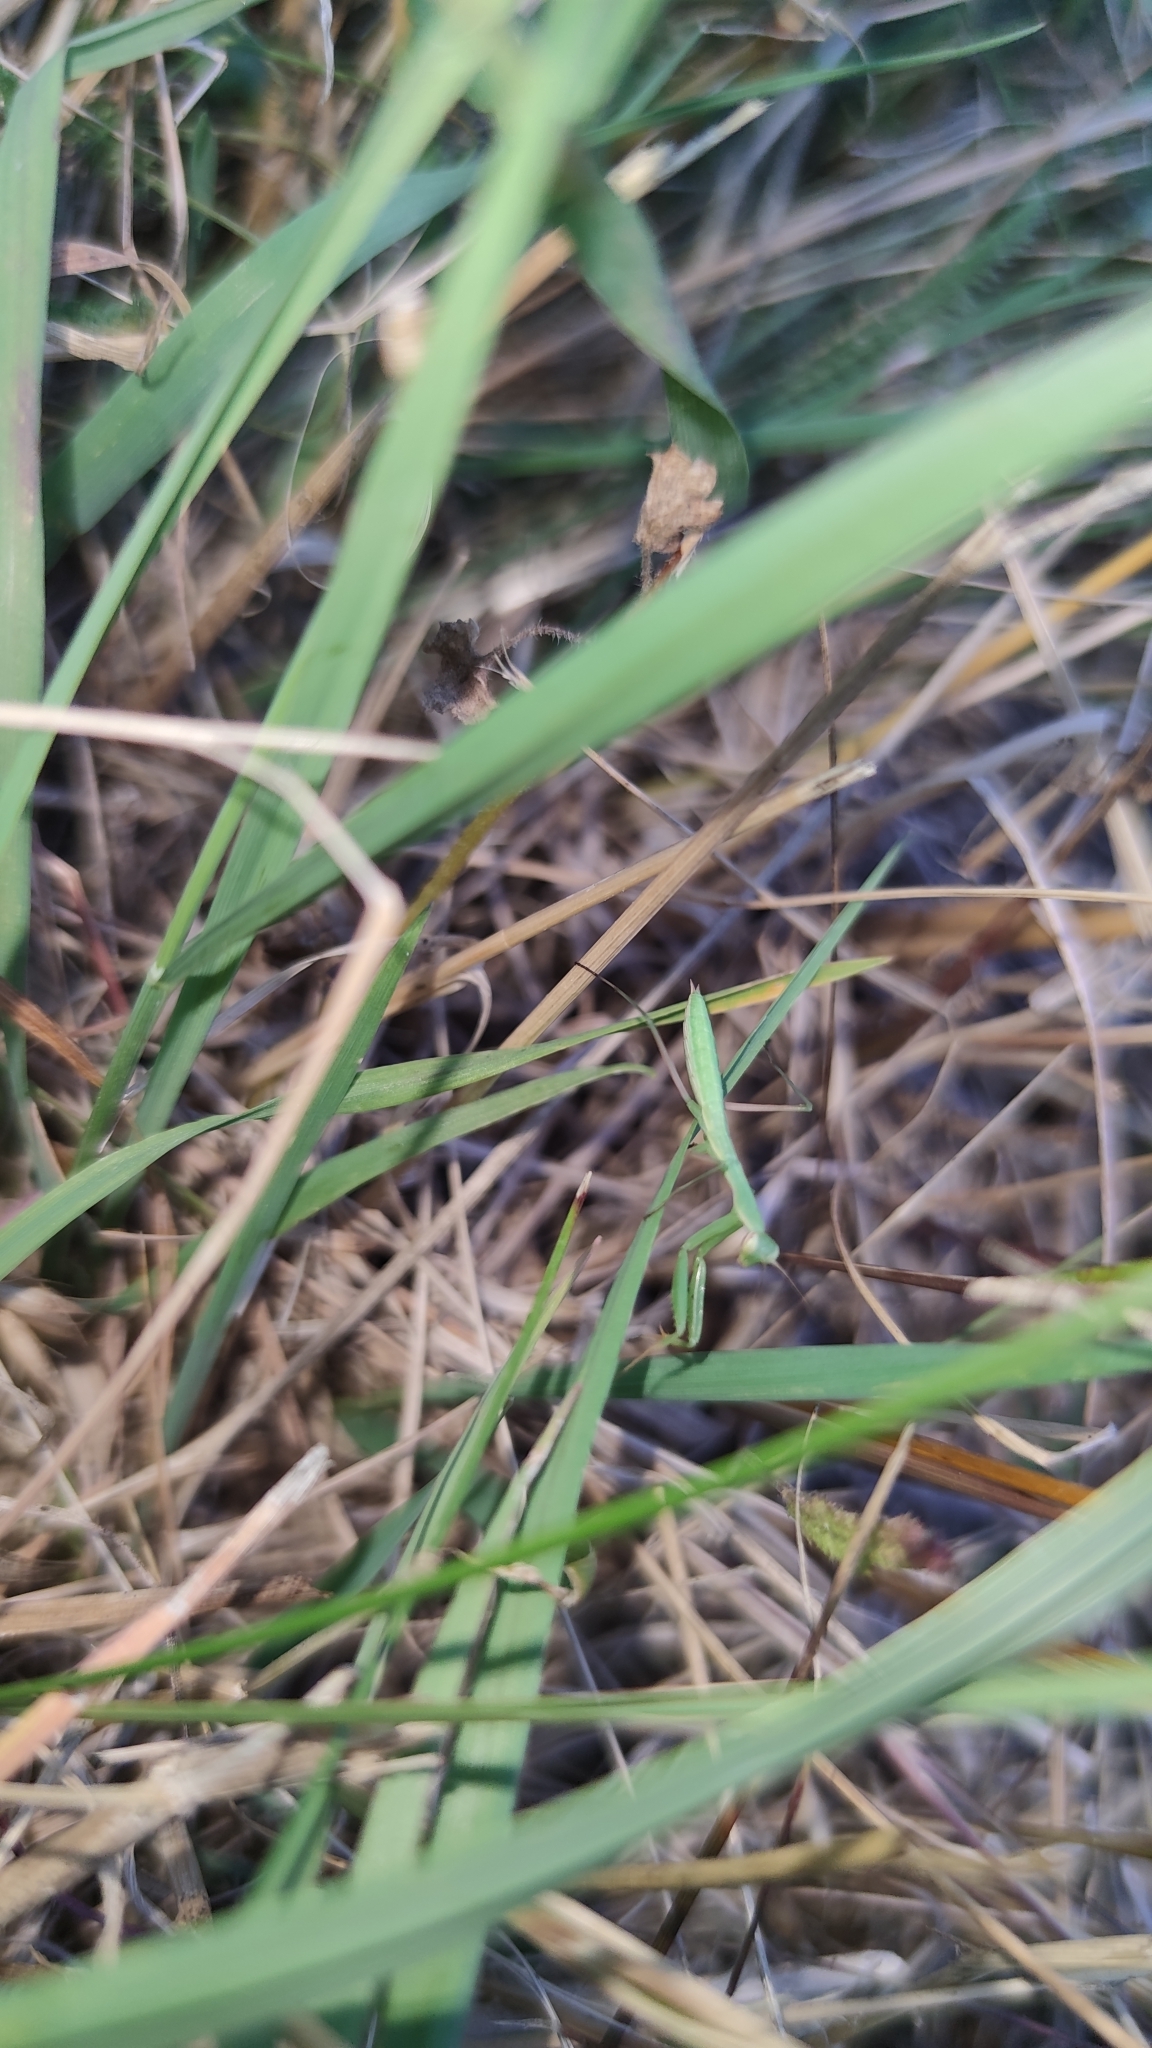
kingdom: Animalia
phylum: Arthropoda
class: Insecta
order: Mantodea
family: Mantidae
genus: Mantis
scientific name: Mantis religiosa
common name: Praying mantis
